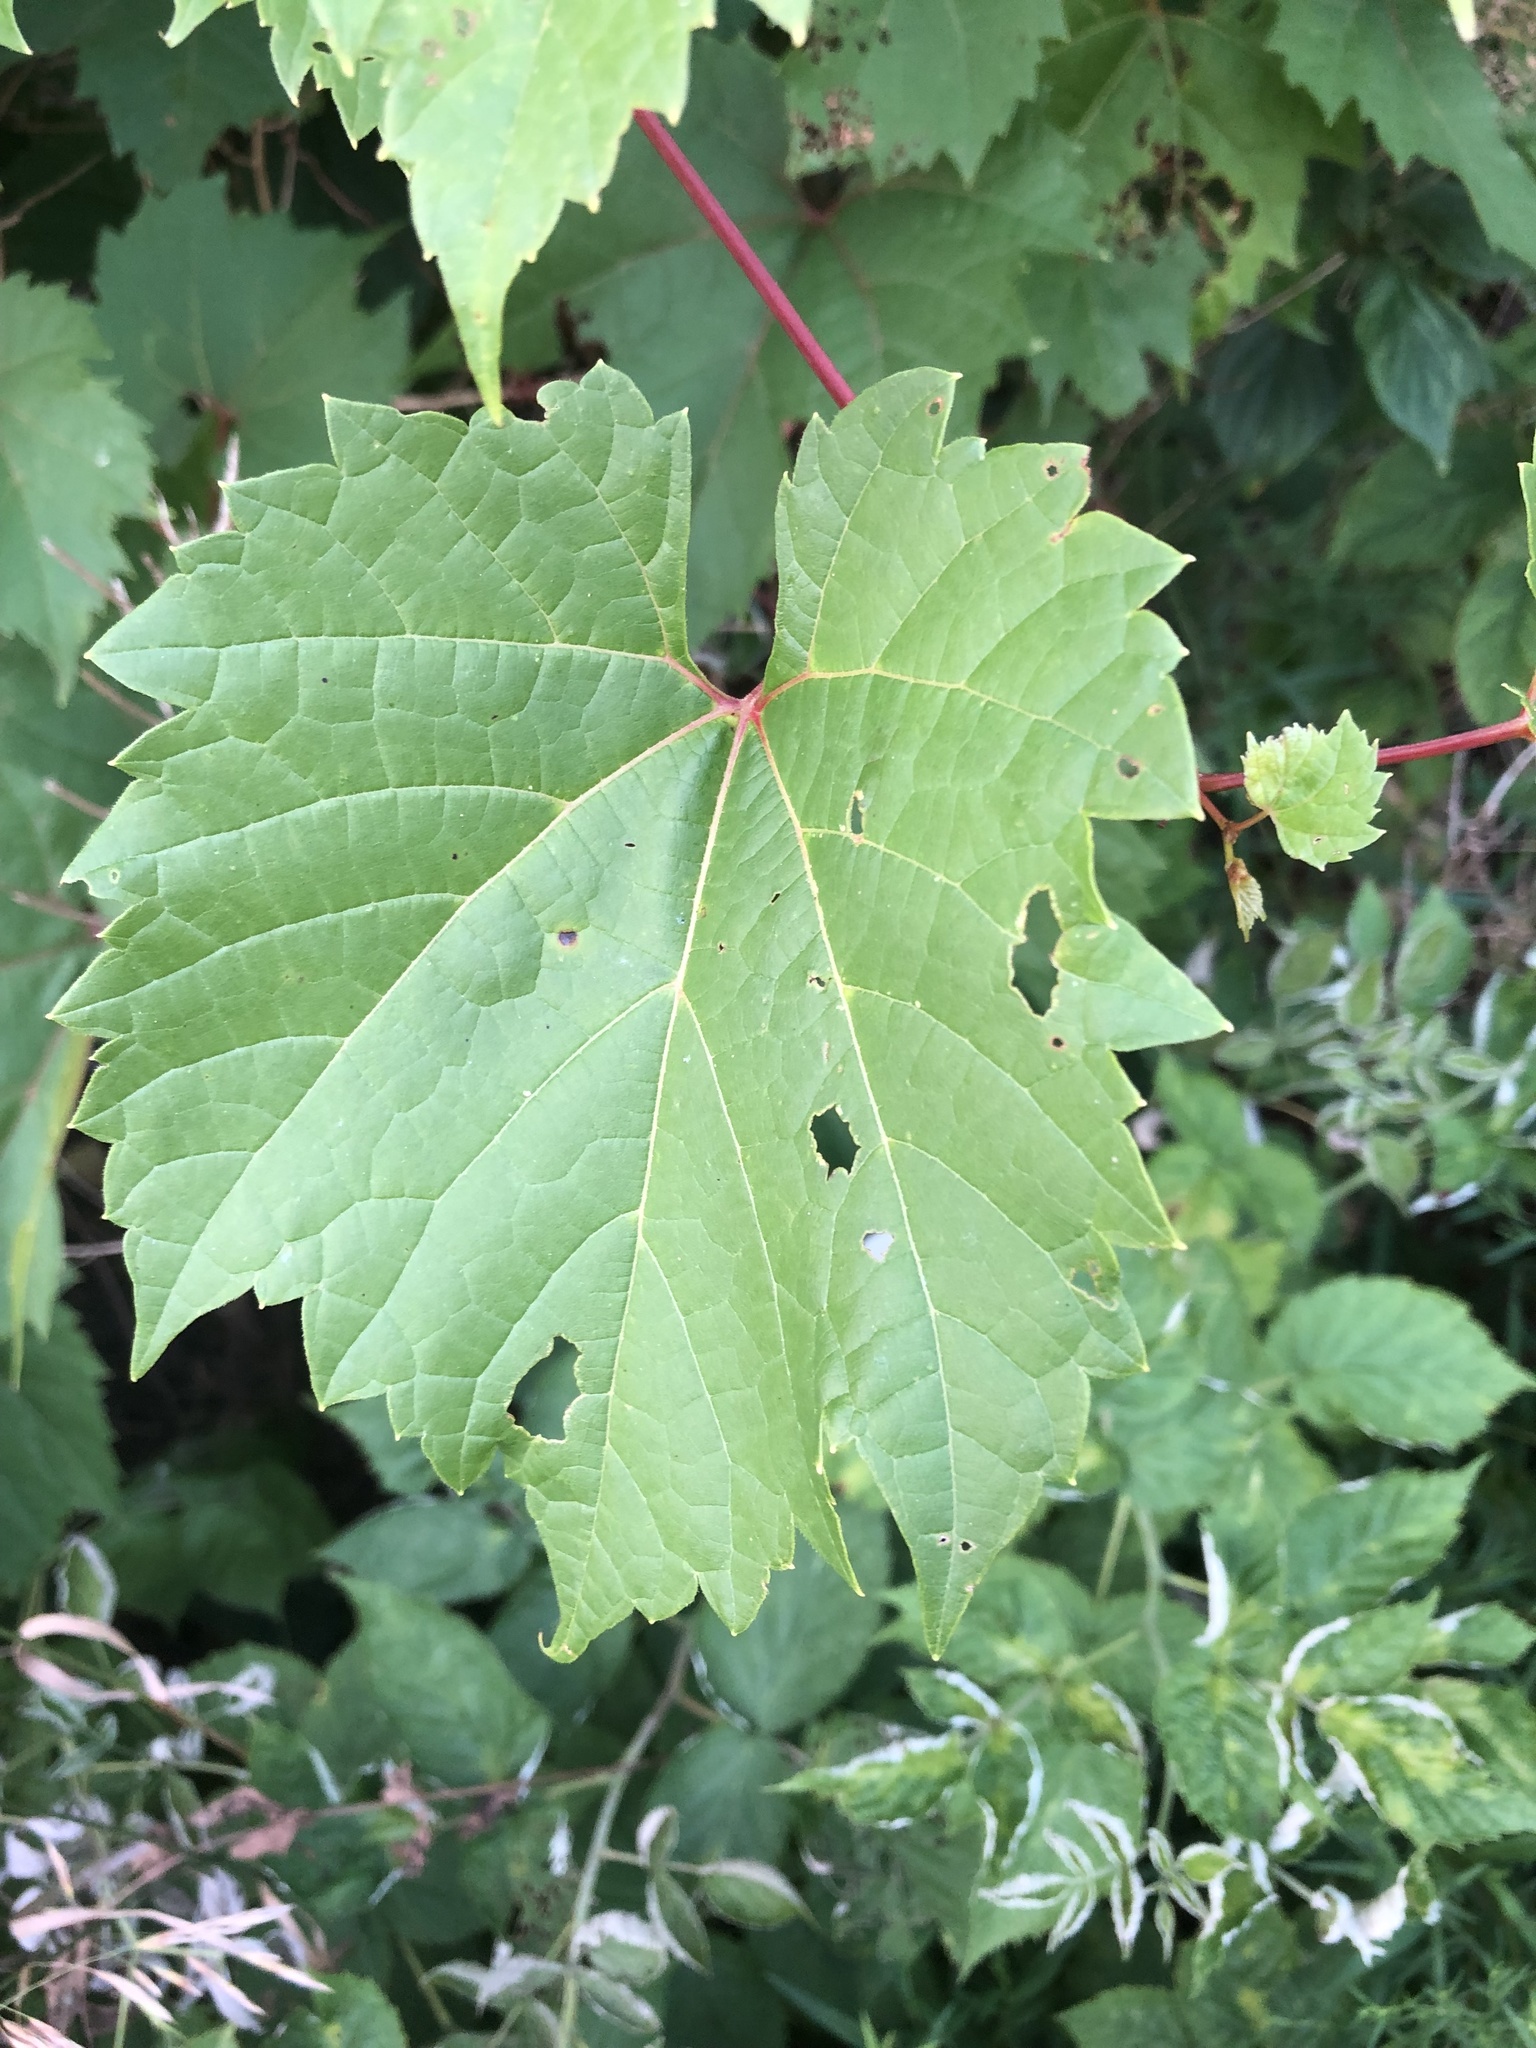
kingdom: Plantae
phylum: Tracheophyta
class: Magnoliopsida
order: Vitales
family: Vitaceae
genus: Vitis
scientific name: Vitis riparia
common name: Frost grape
